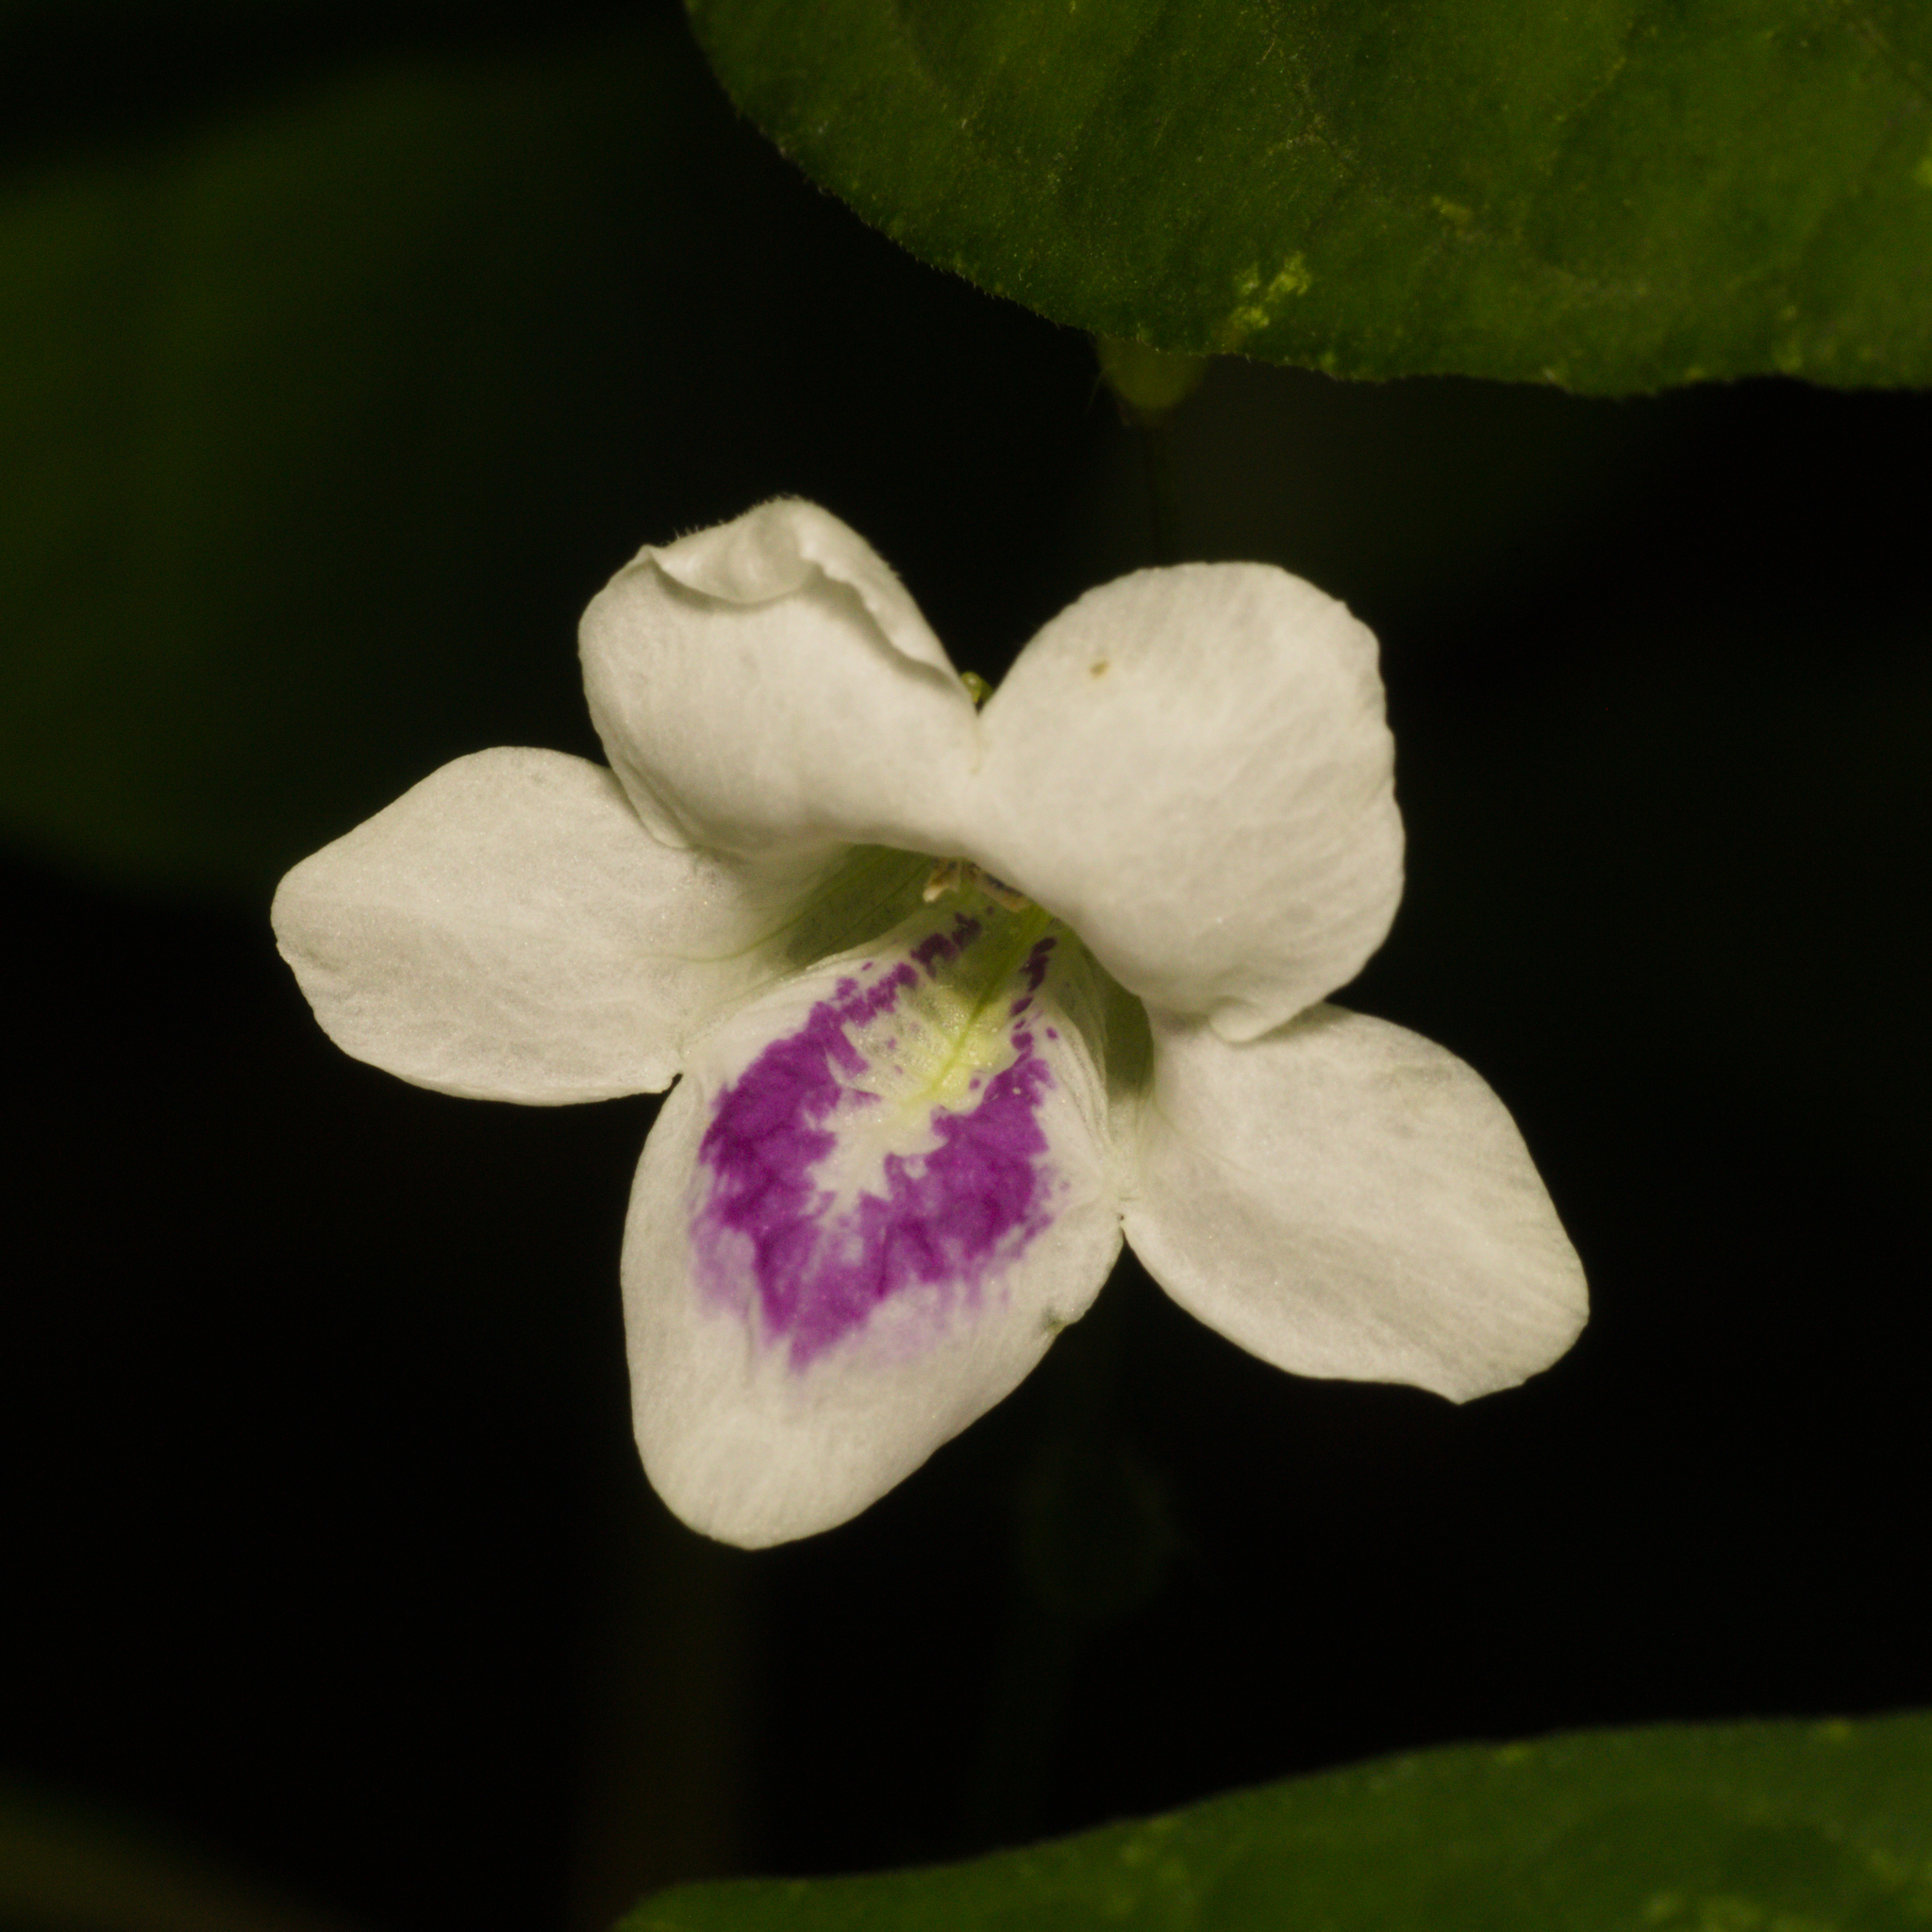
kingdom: Plantae
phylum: Tracheophyta
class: Magnoliopsida
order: Lamiales
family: Acanthaceae
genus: Asystasia
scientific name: Asystasia intrusa
